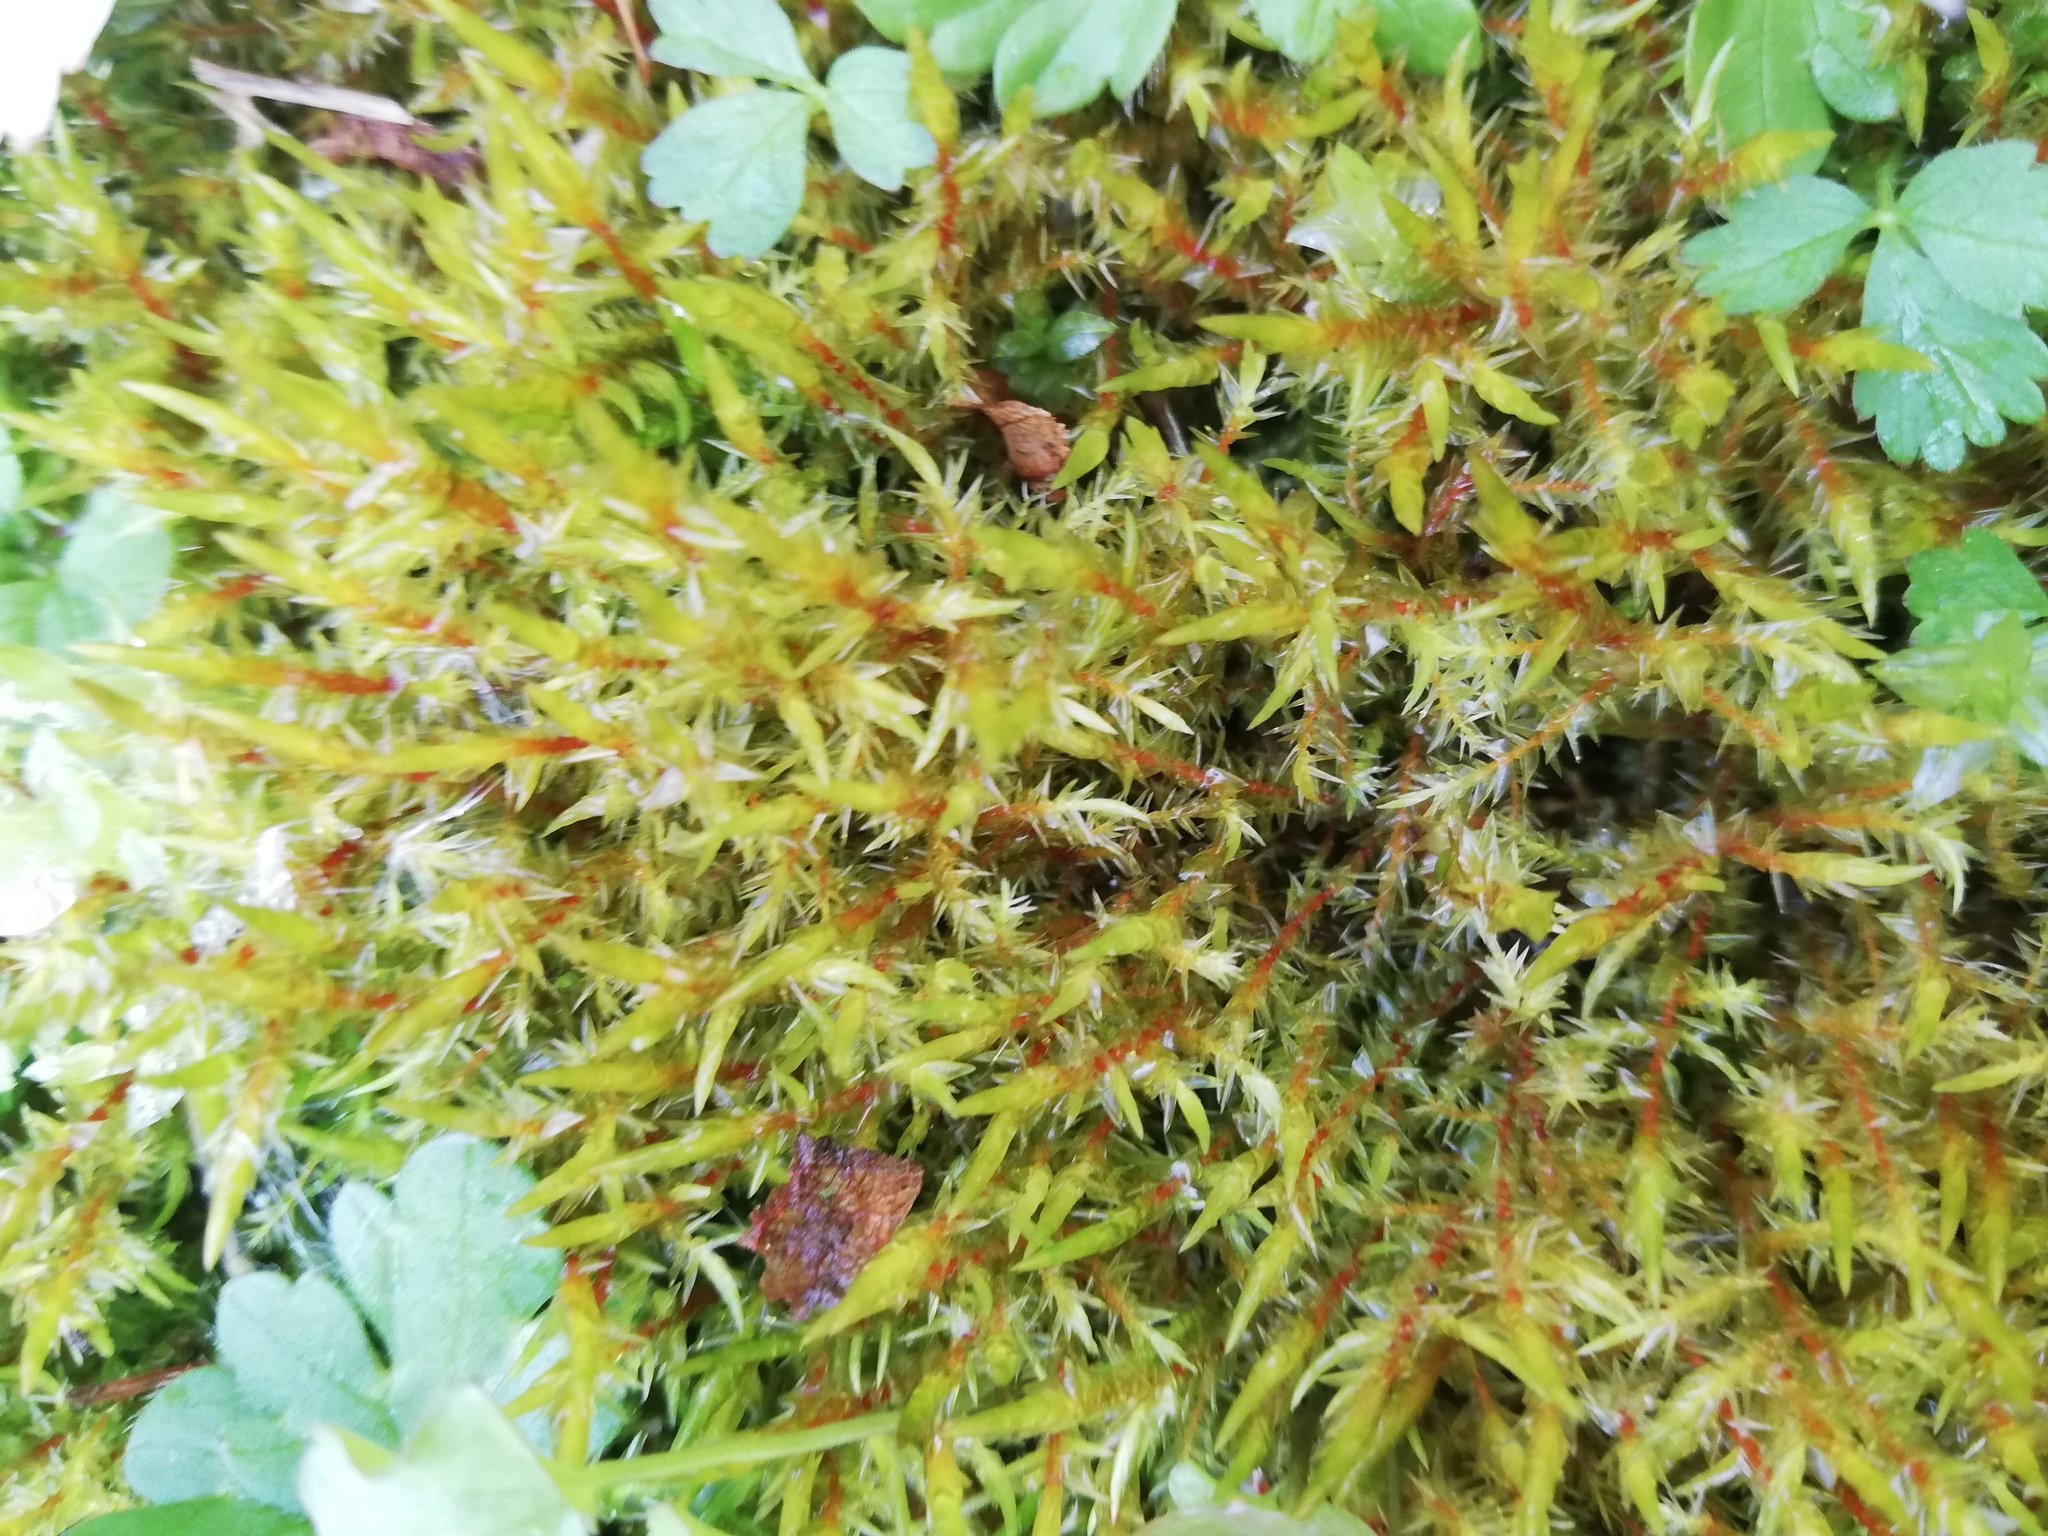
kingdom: Plantae
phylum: Bryophyta
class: Bryopsida
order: Hypnales
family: Pylaisiaceae
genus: Calliergonella
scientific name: Calliergonella cuspidata
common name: Common large wetland moss
